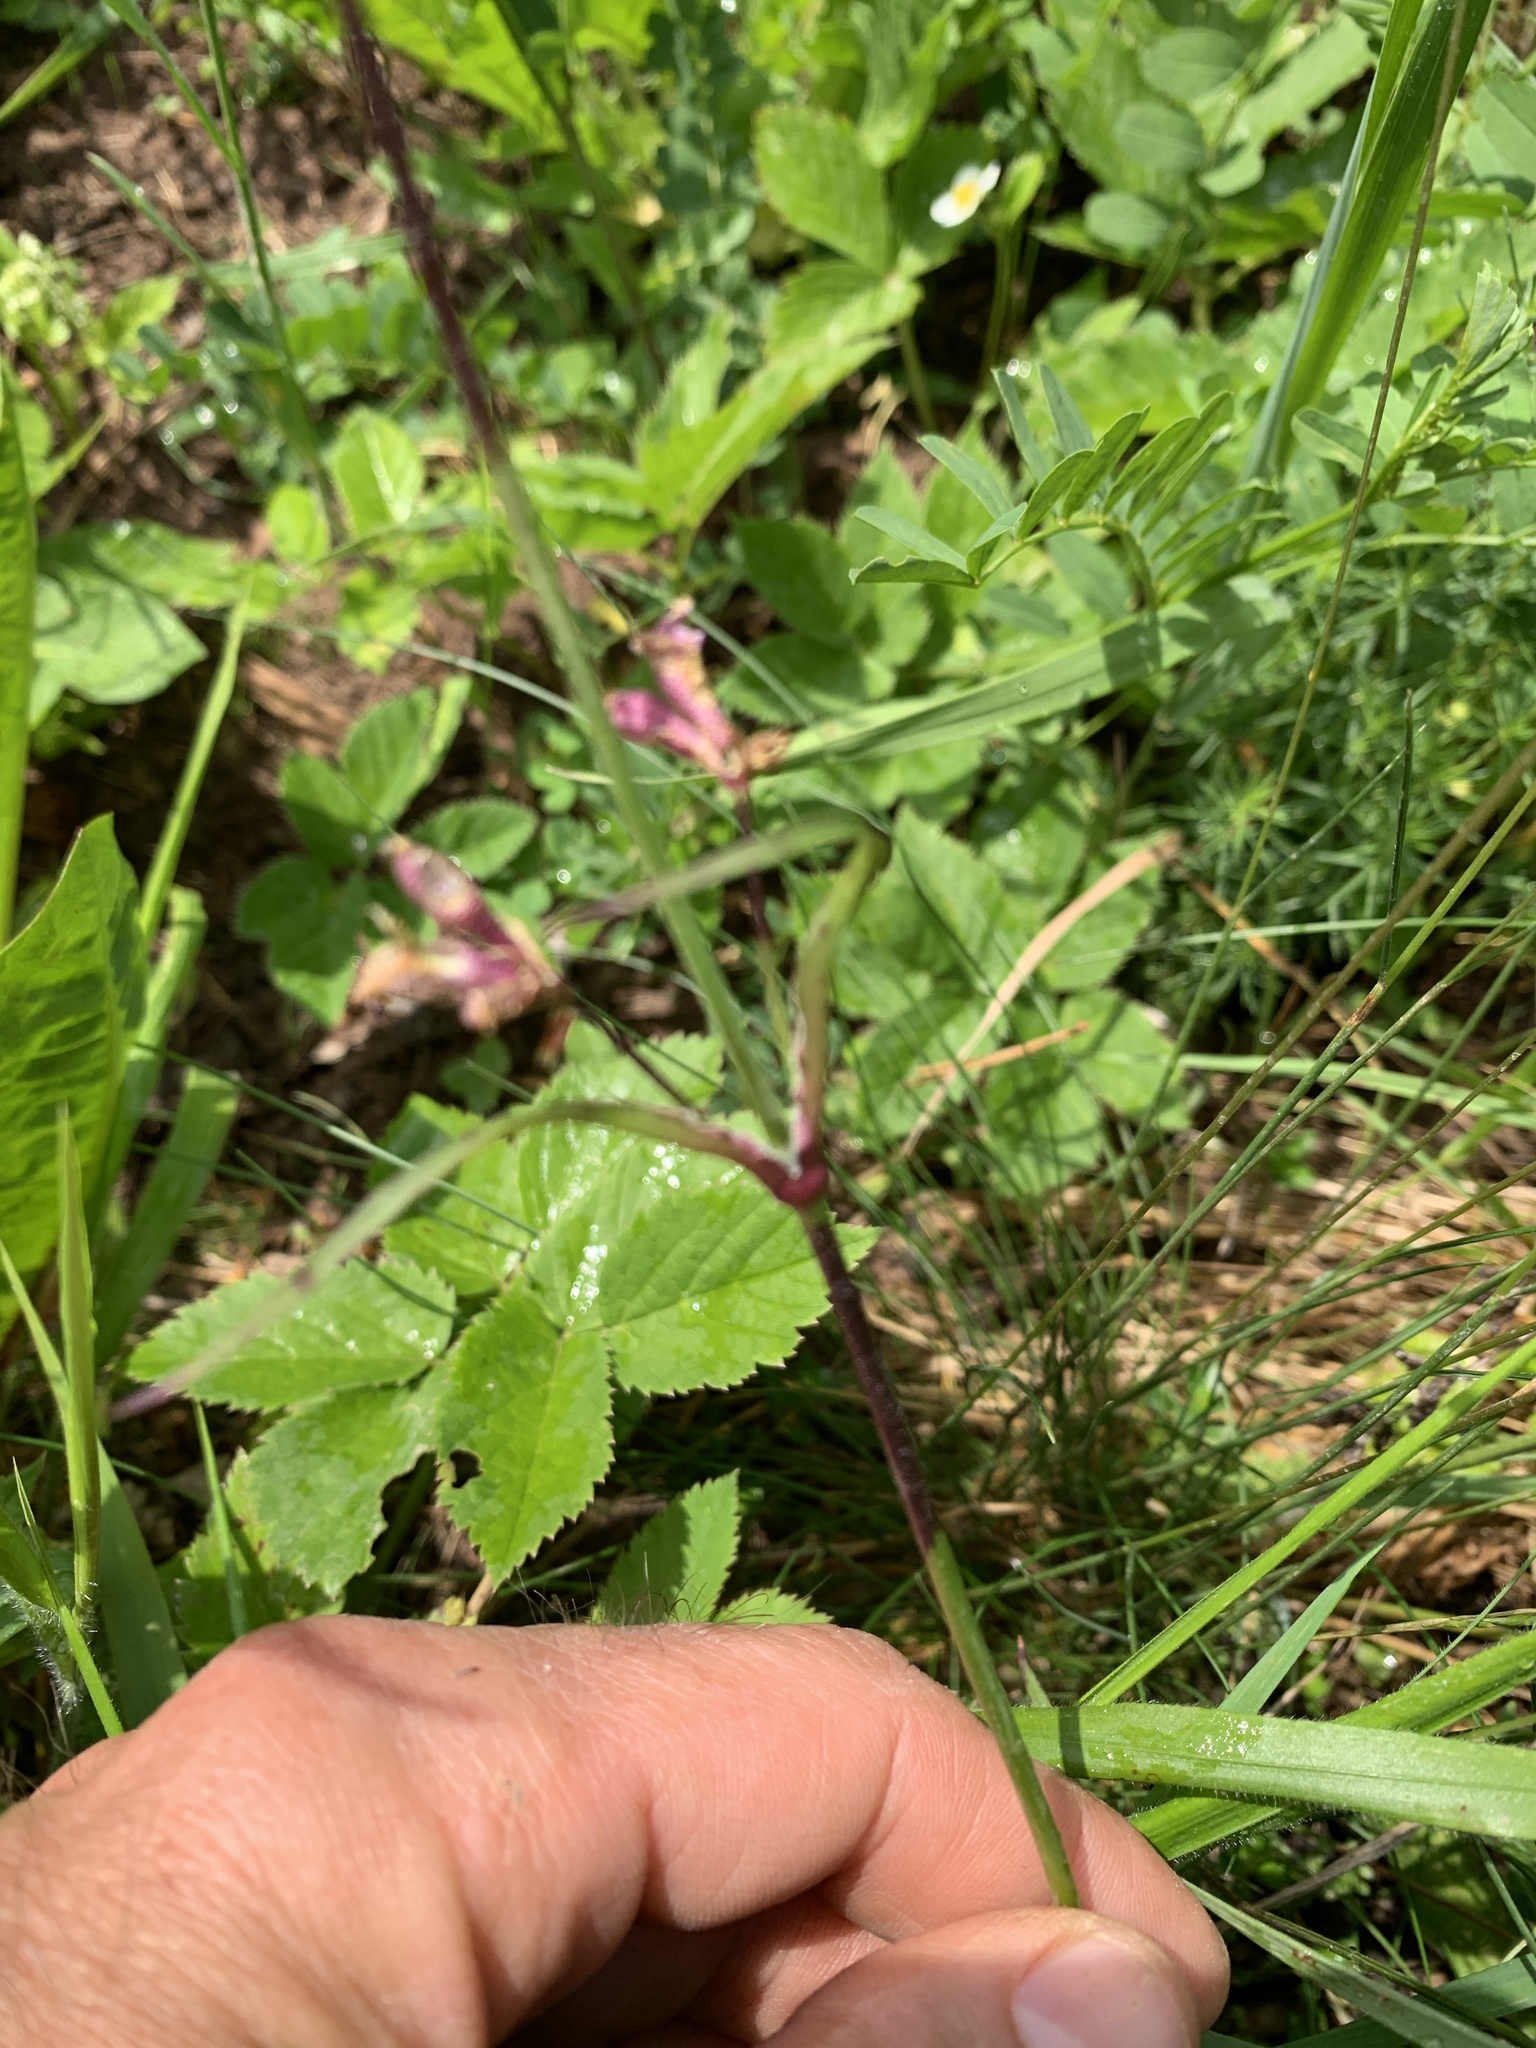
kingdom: Plantae
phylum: Tracheophyta
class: Magnoliopsida
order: Caryophyllales
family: Caryophyllaceae
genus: Viscaria
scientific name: Viscaria vulgaris
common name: Clammy campion
